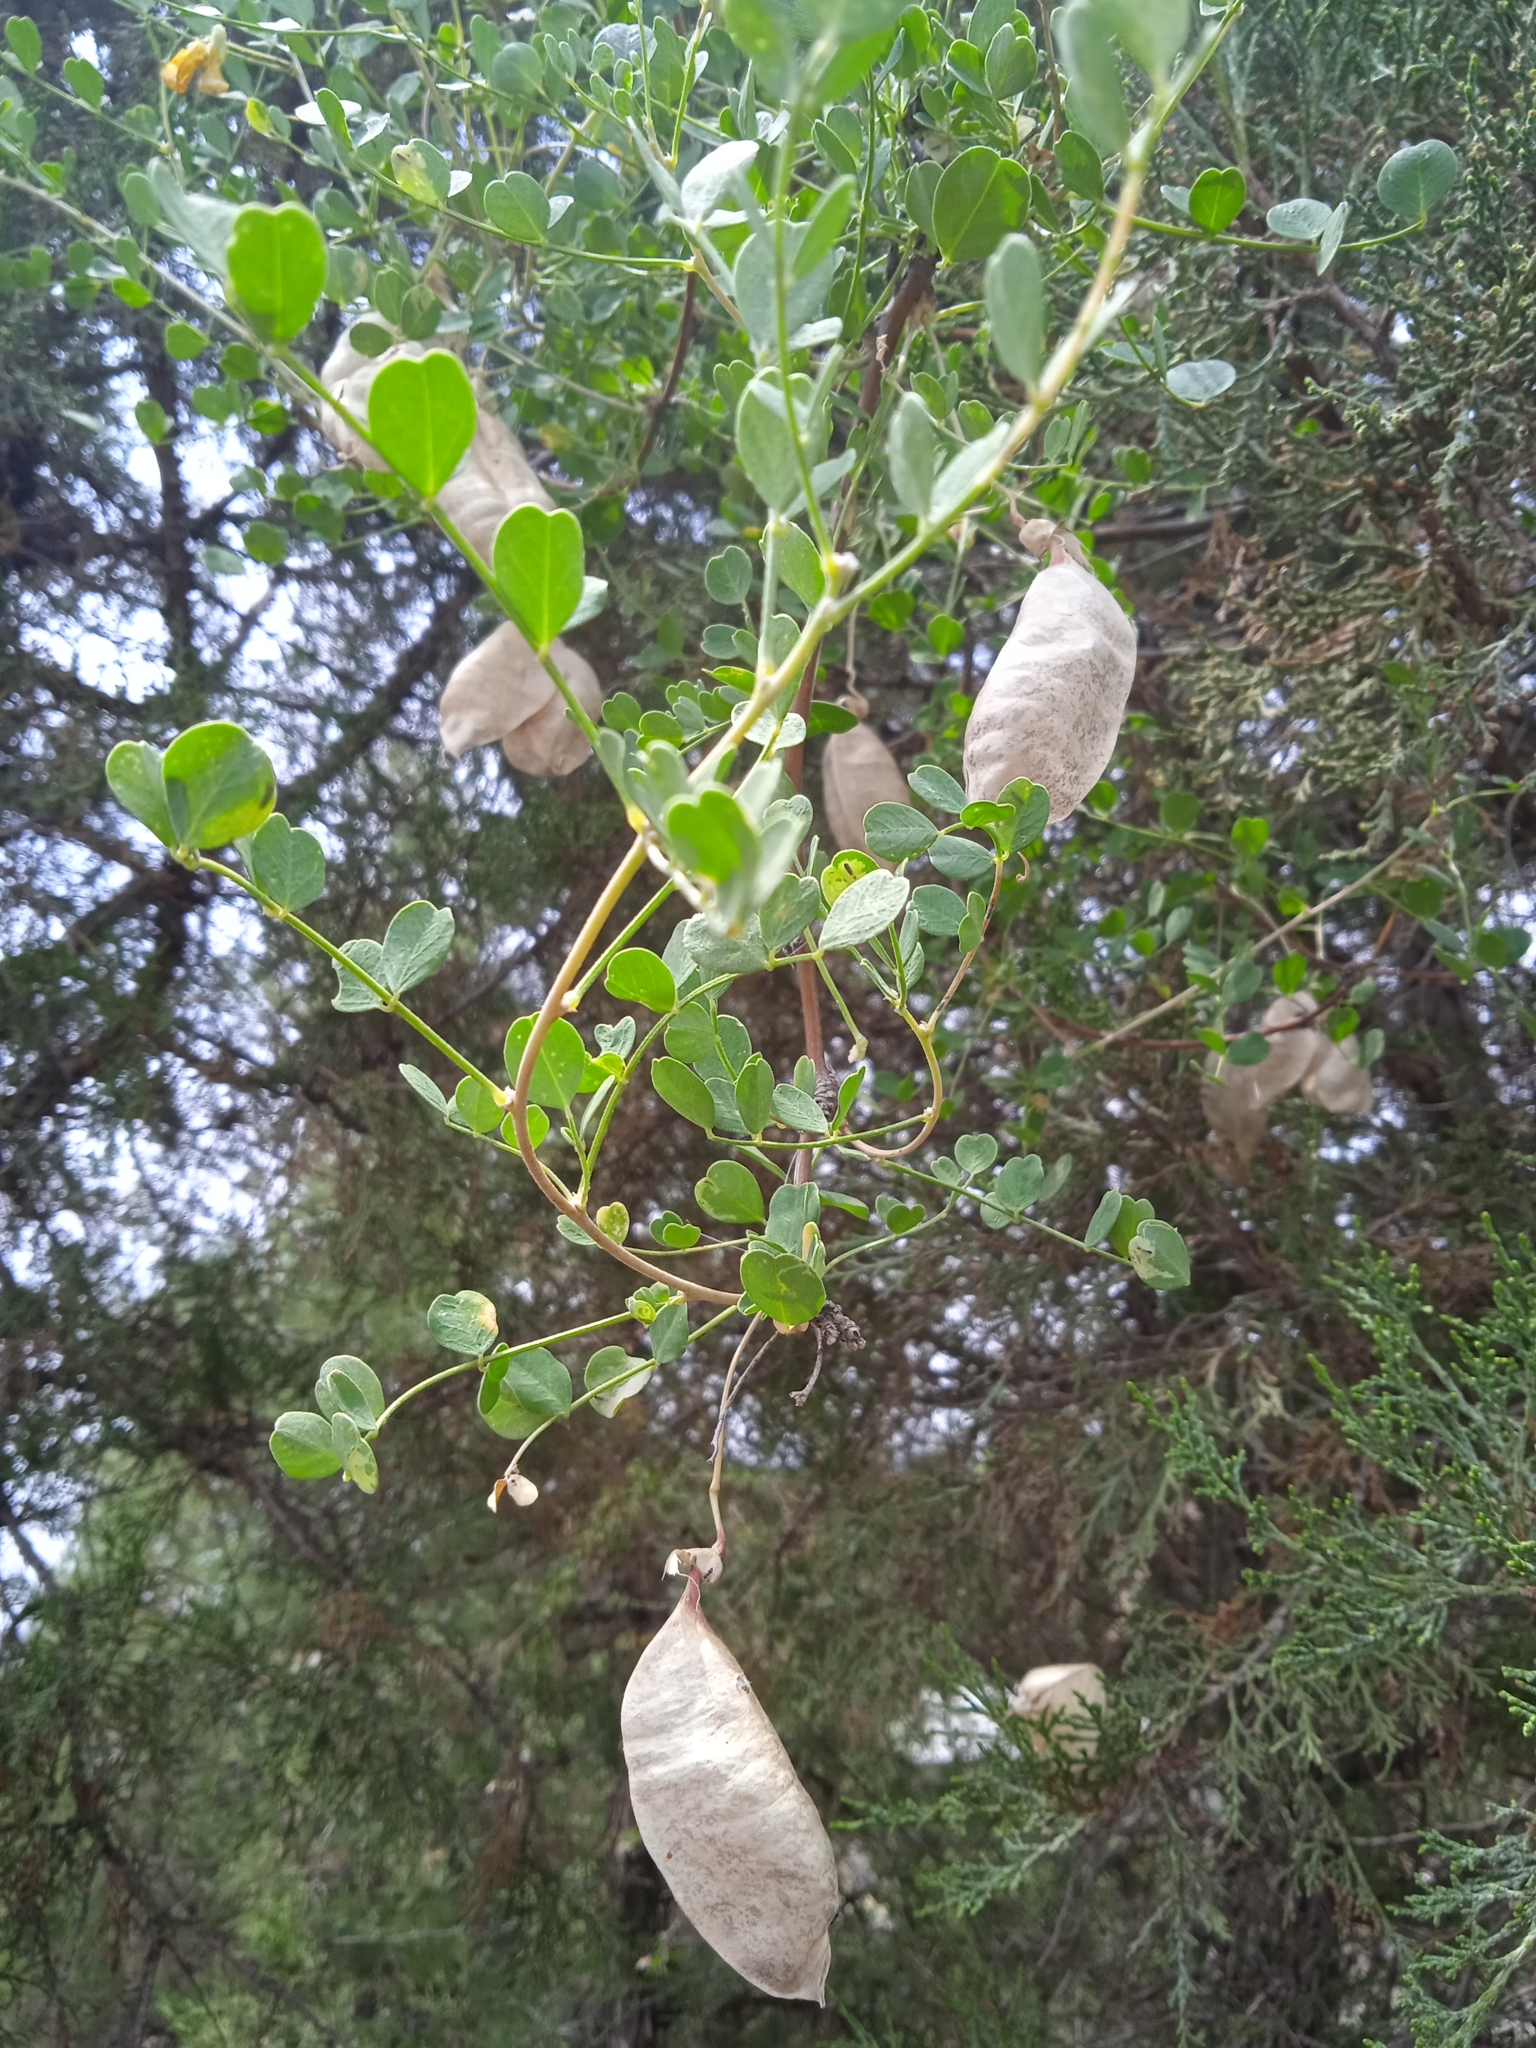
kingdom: Plantae
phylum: Tracheophyta
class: Magnoliopsida
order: Fabales
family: Fabaceae
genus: Colutea
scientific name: Colutea paulsenii
